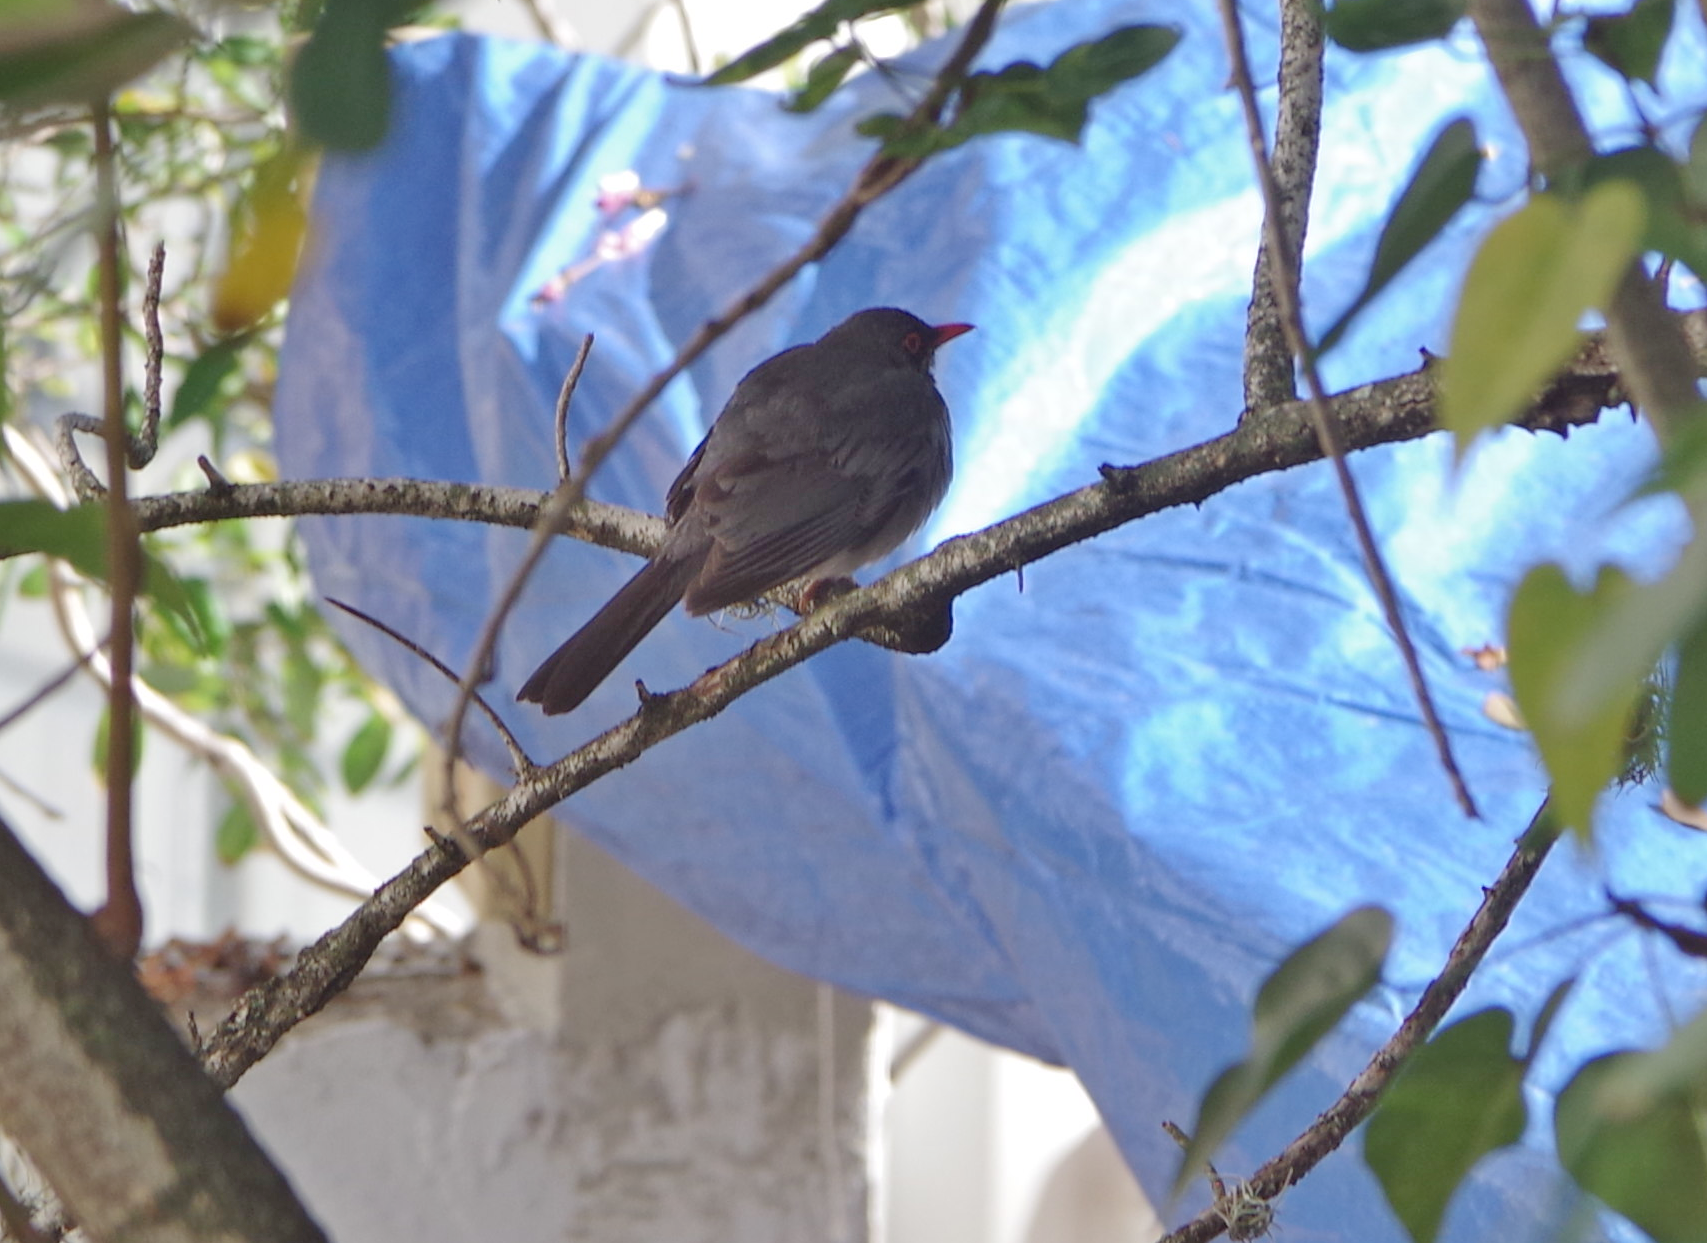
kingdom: Animalia
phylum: Chordata
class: Aves
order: Passeriformes
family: Turdidae
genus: Turdus
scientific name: Turdus plumbeus
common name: Red-legged thrush
